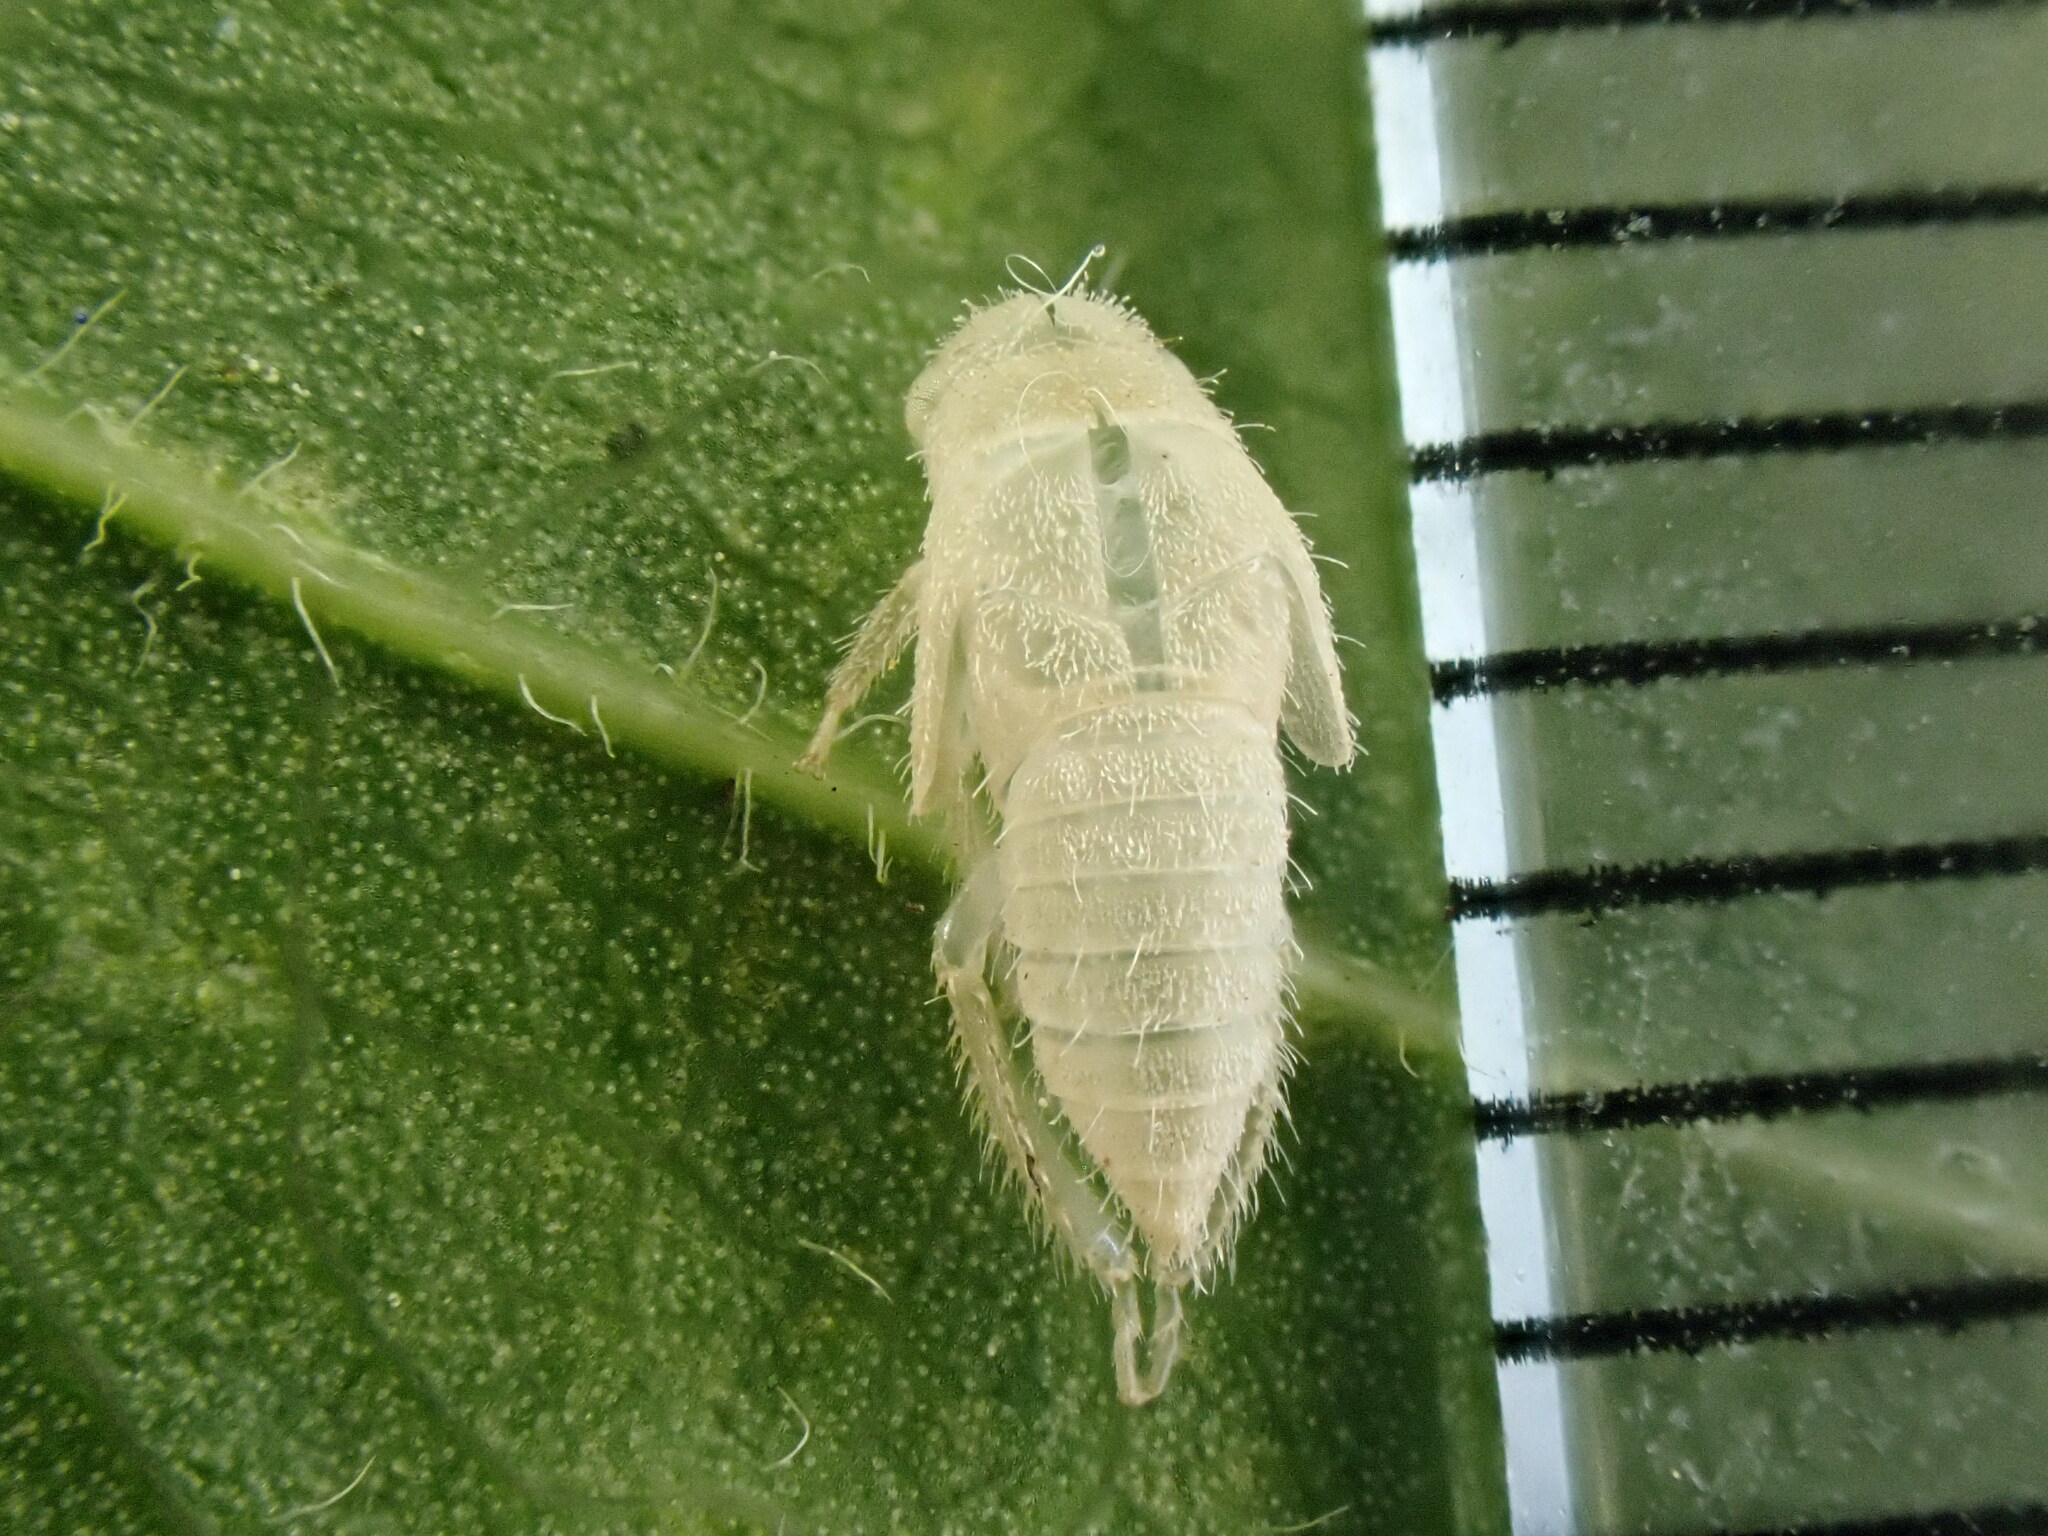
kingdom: Animalia
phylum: Arthropoda
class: Insecta
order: Hemiptera
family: Cicadellidae
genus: Stragania
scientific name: Stragania apicalis
